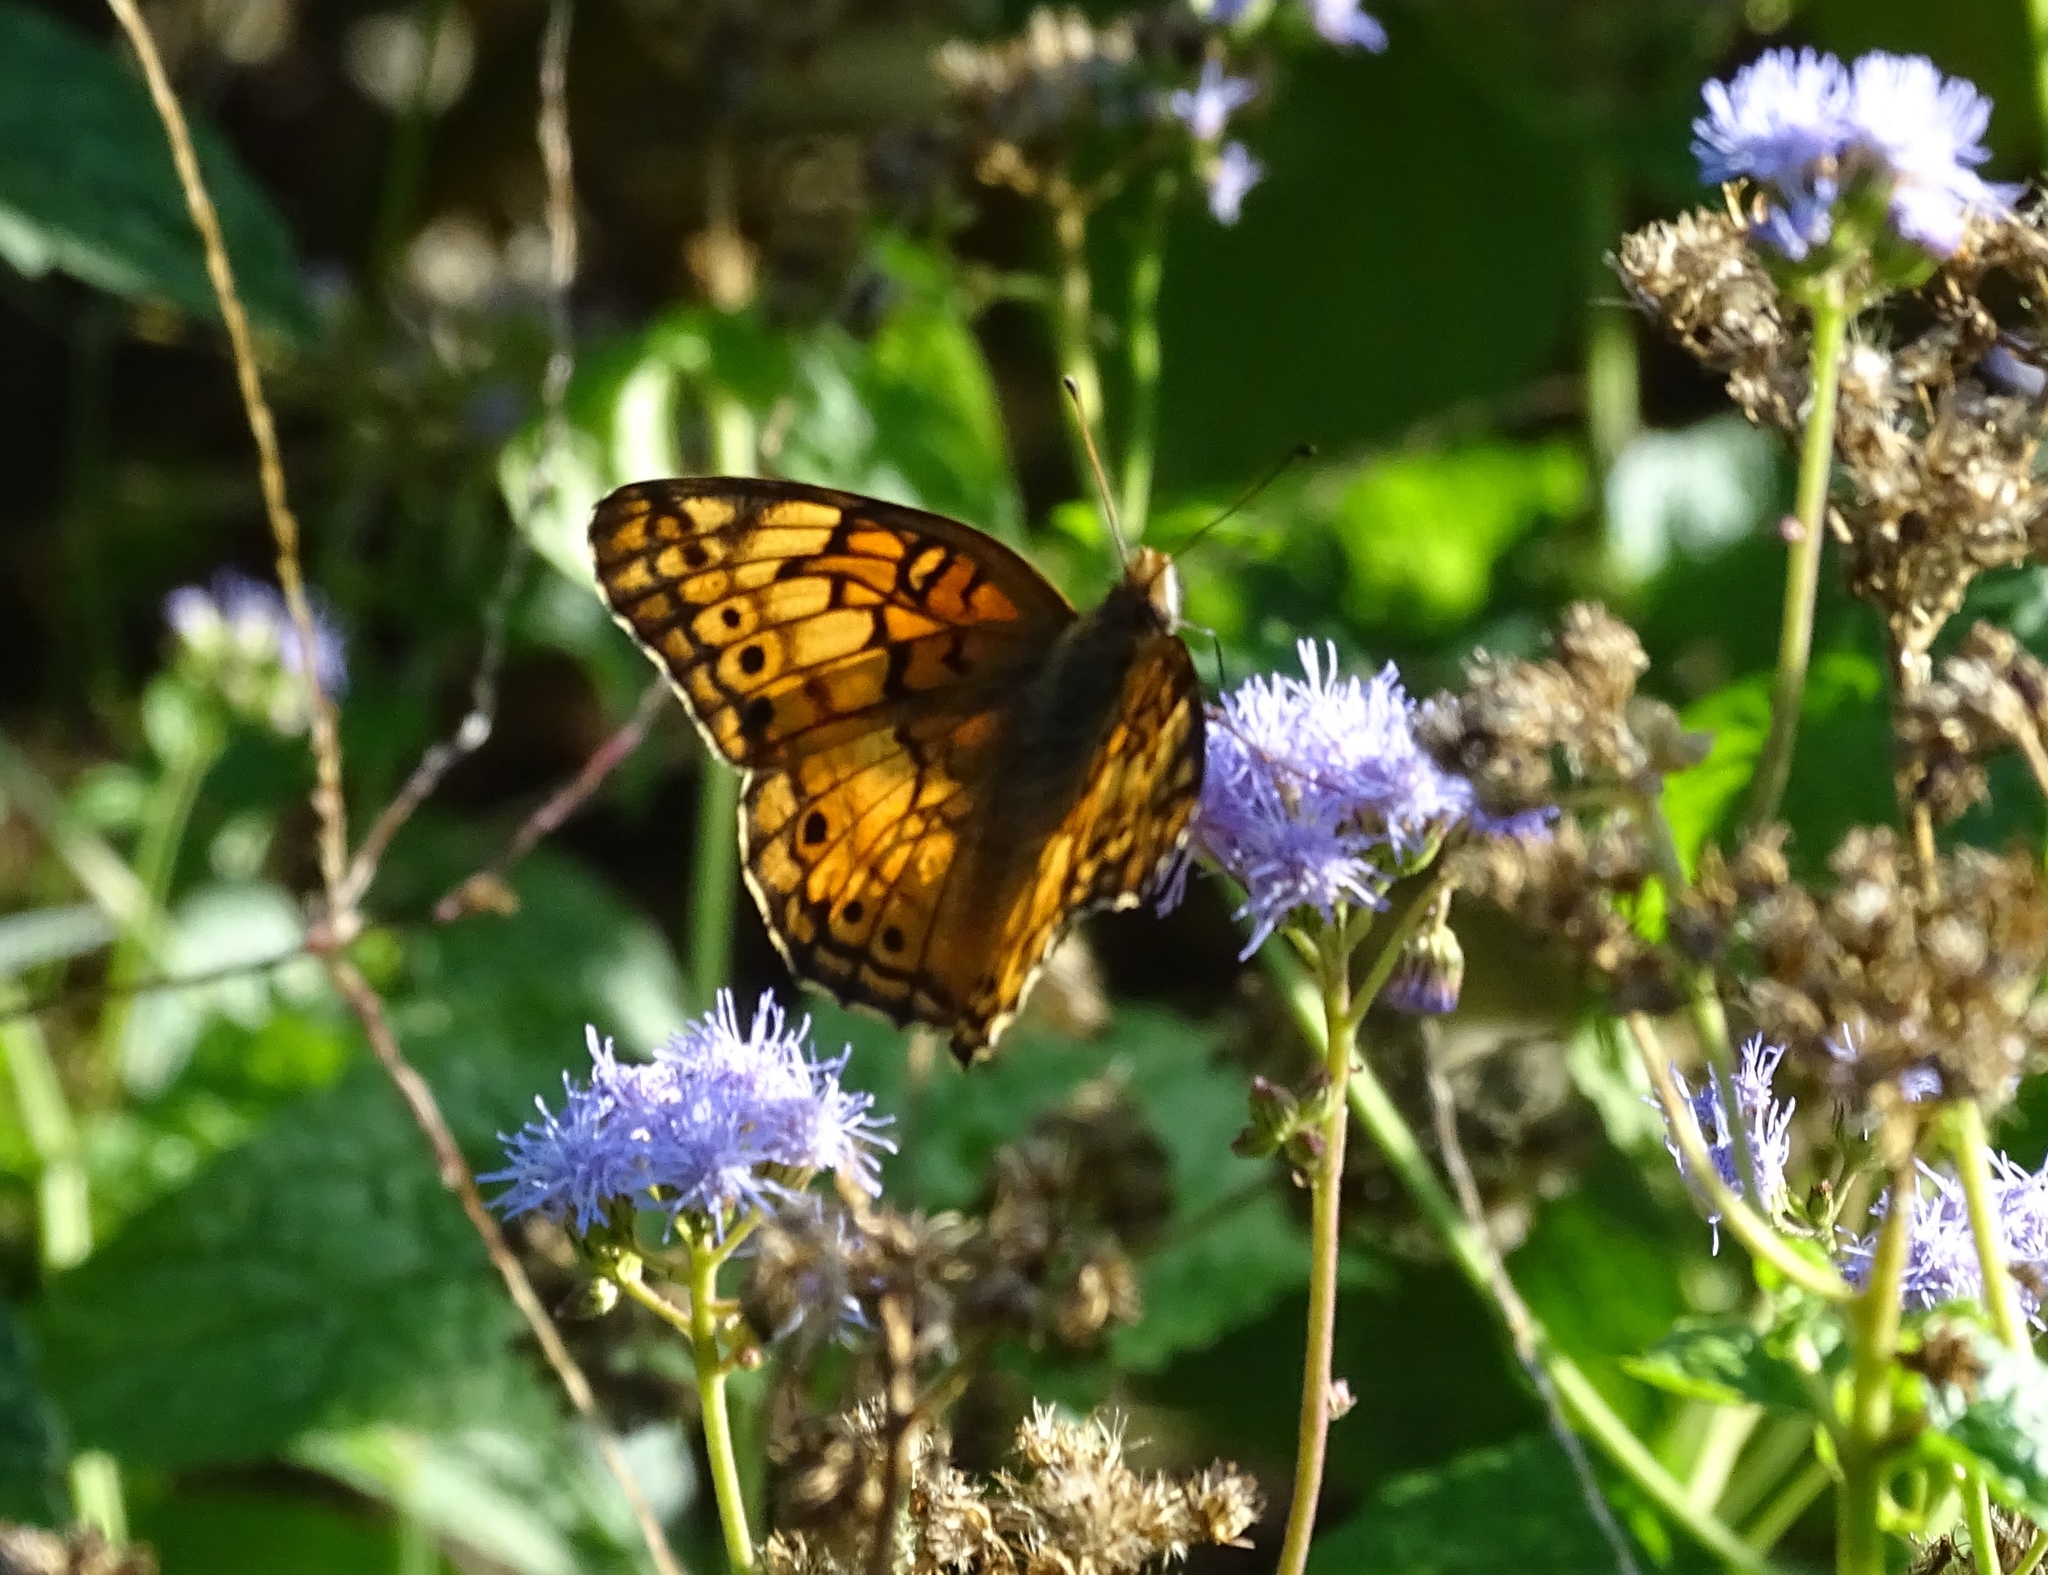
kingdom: Animalia
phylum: Arthropoda
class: Insecta
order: Lepidoptera
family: Nymphalidae
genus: Euptoieta
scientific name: Euptoieta claudia
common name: Variegated fritillary
